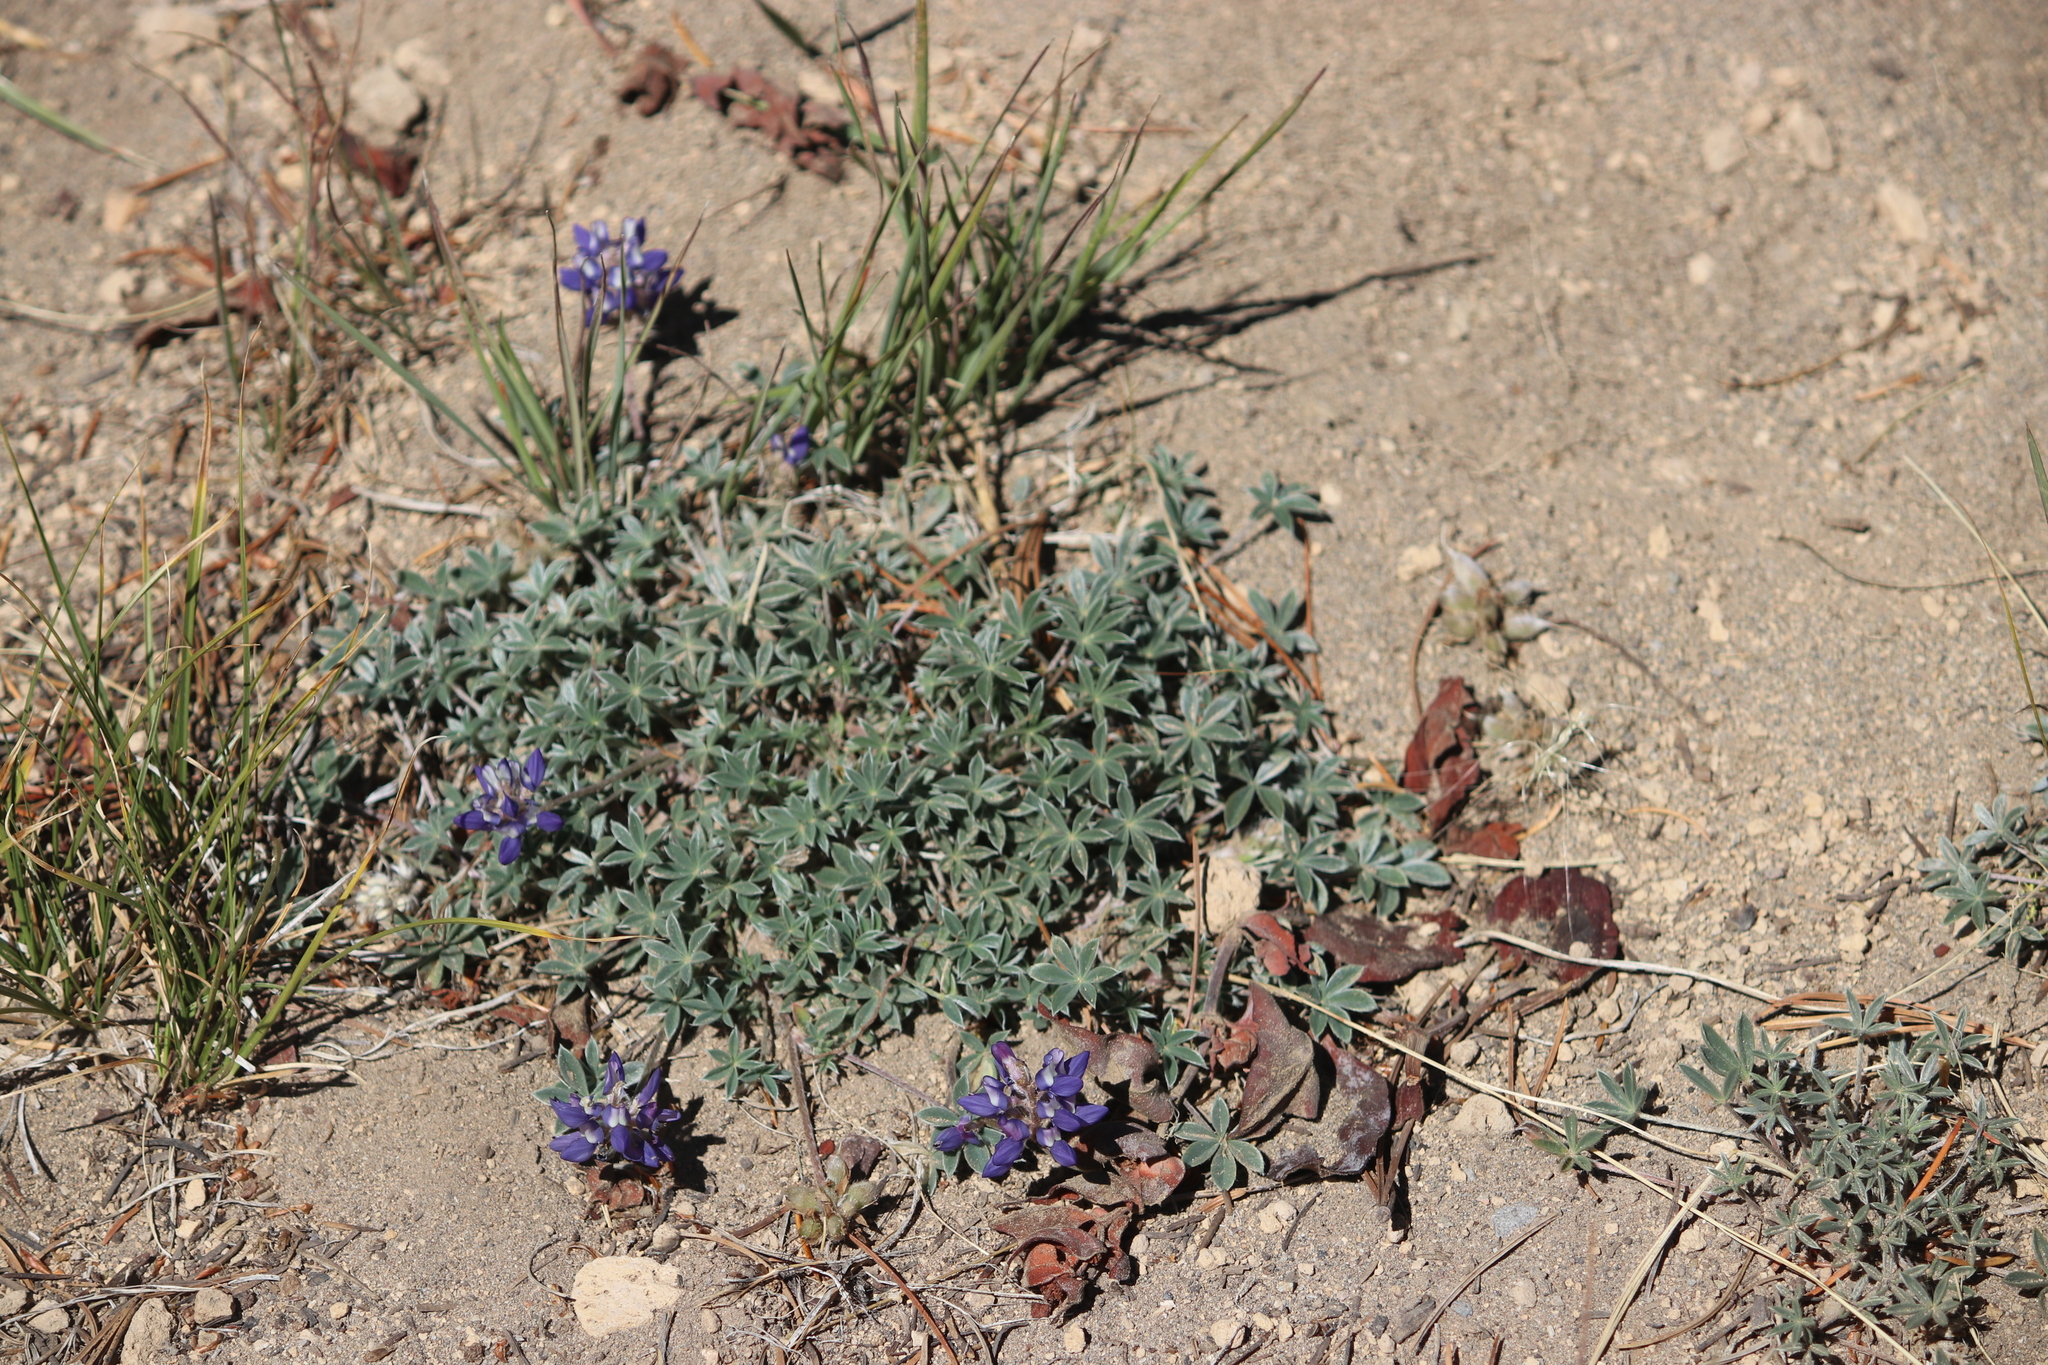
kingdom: Plantae
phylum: Tracheophyta
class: Magnoliopsida
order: Fabales
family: Fabaceae
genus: Lupinus
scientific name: Lupinus lepidus
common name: Prairie lupine
